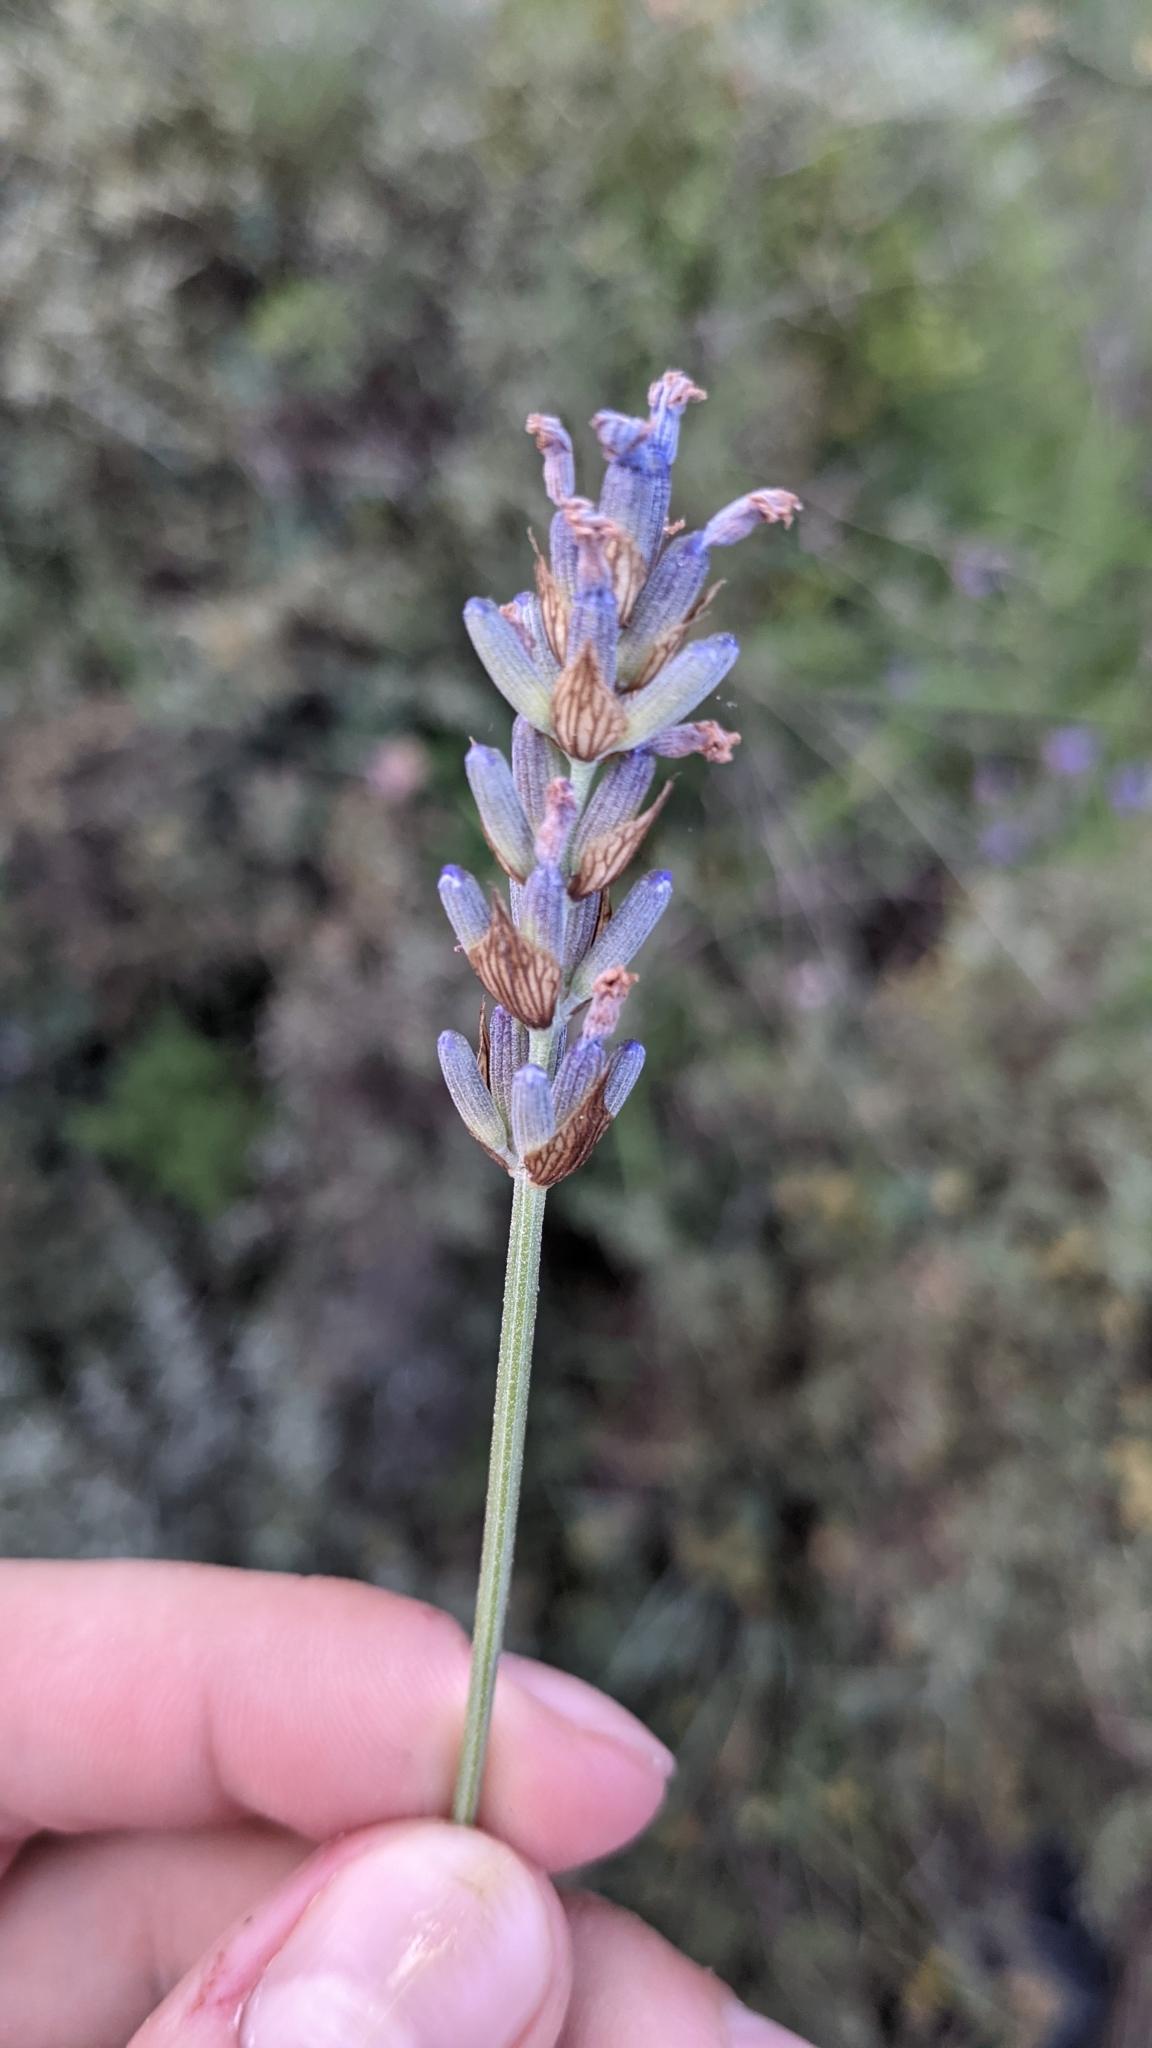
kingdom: Plantae
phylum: Tracheophyta
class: Magnoliopsida
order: Lamiales
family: Lamiaceae
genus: Lavandula
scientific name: Lavandula angustifolia
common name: Garden lavender
